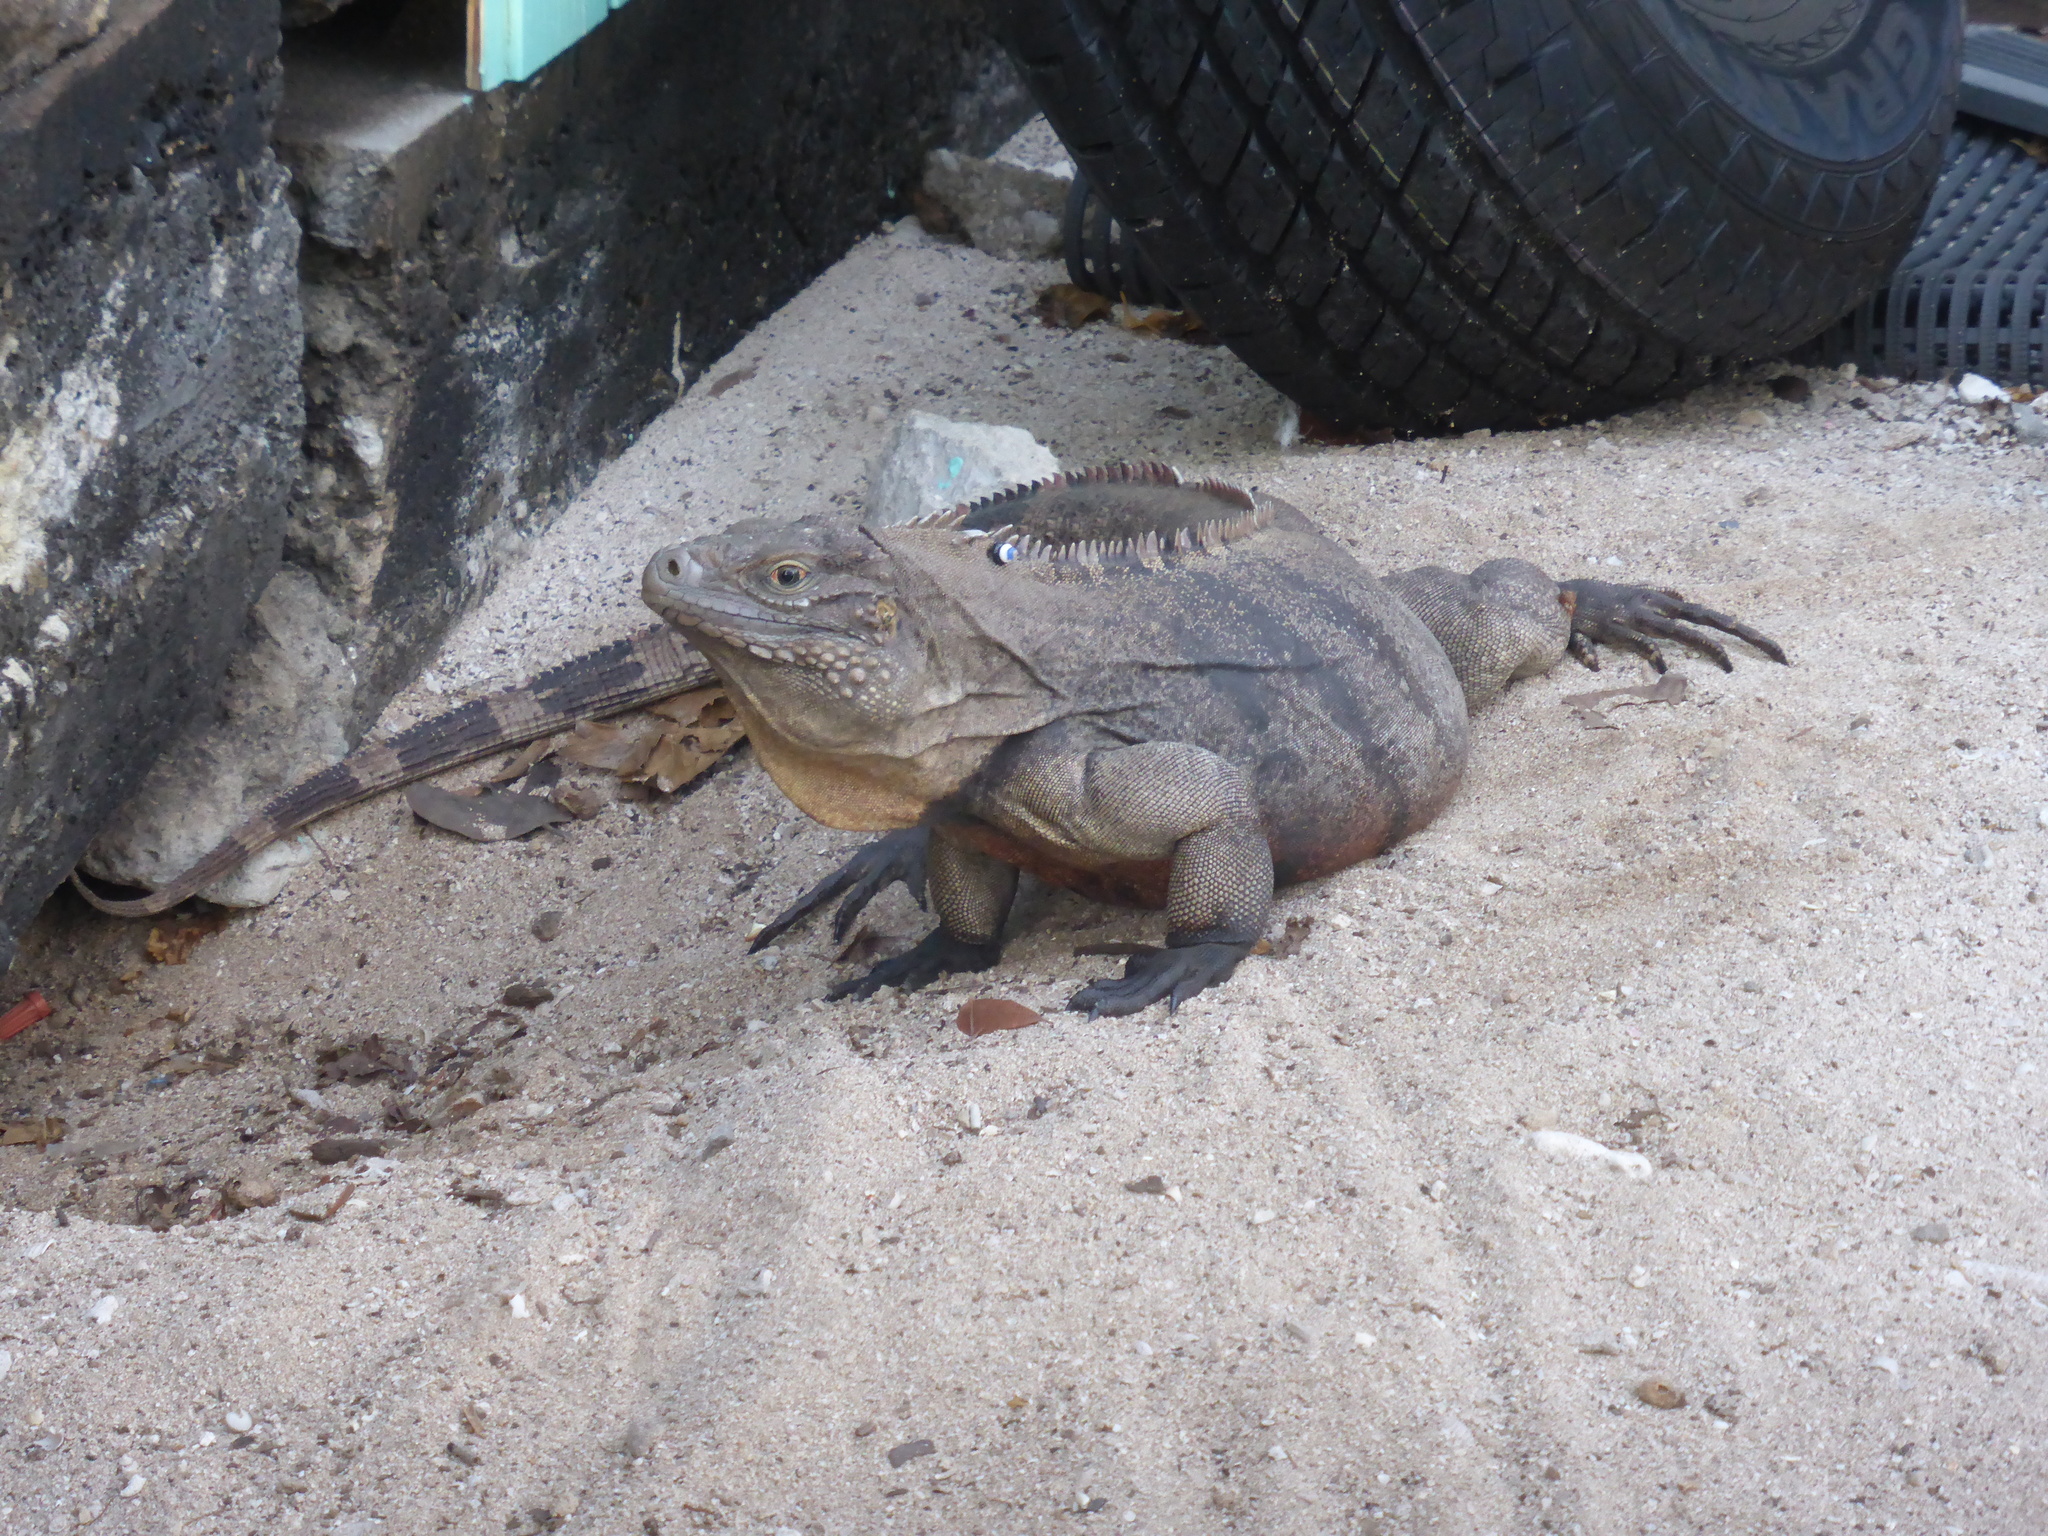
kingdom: Animalia
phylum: Chordata
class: Squamata
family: Iguanidae
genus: Cyclura
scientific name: Cyclura nubila
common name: Cayman islands ground iguana
